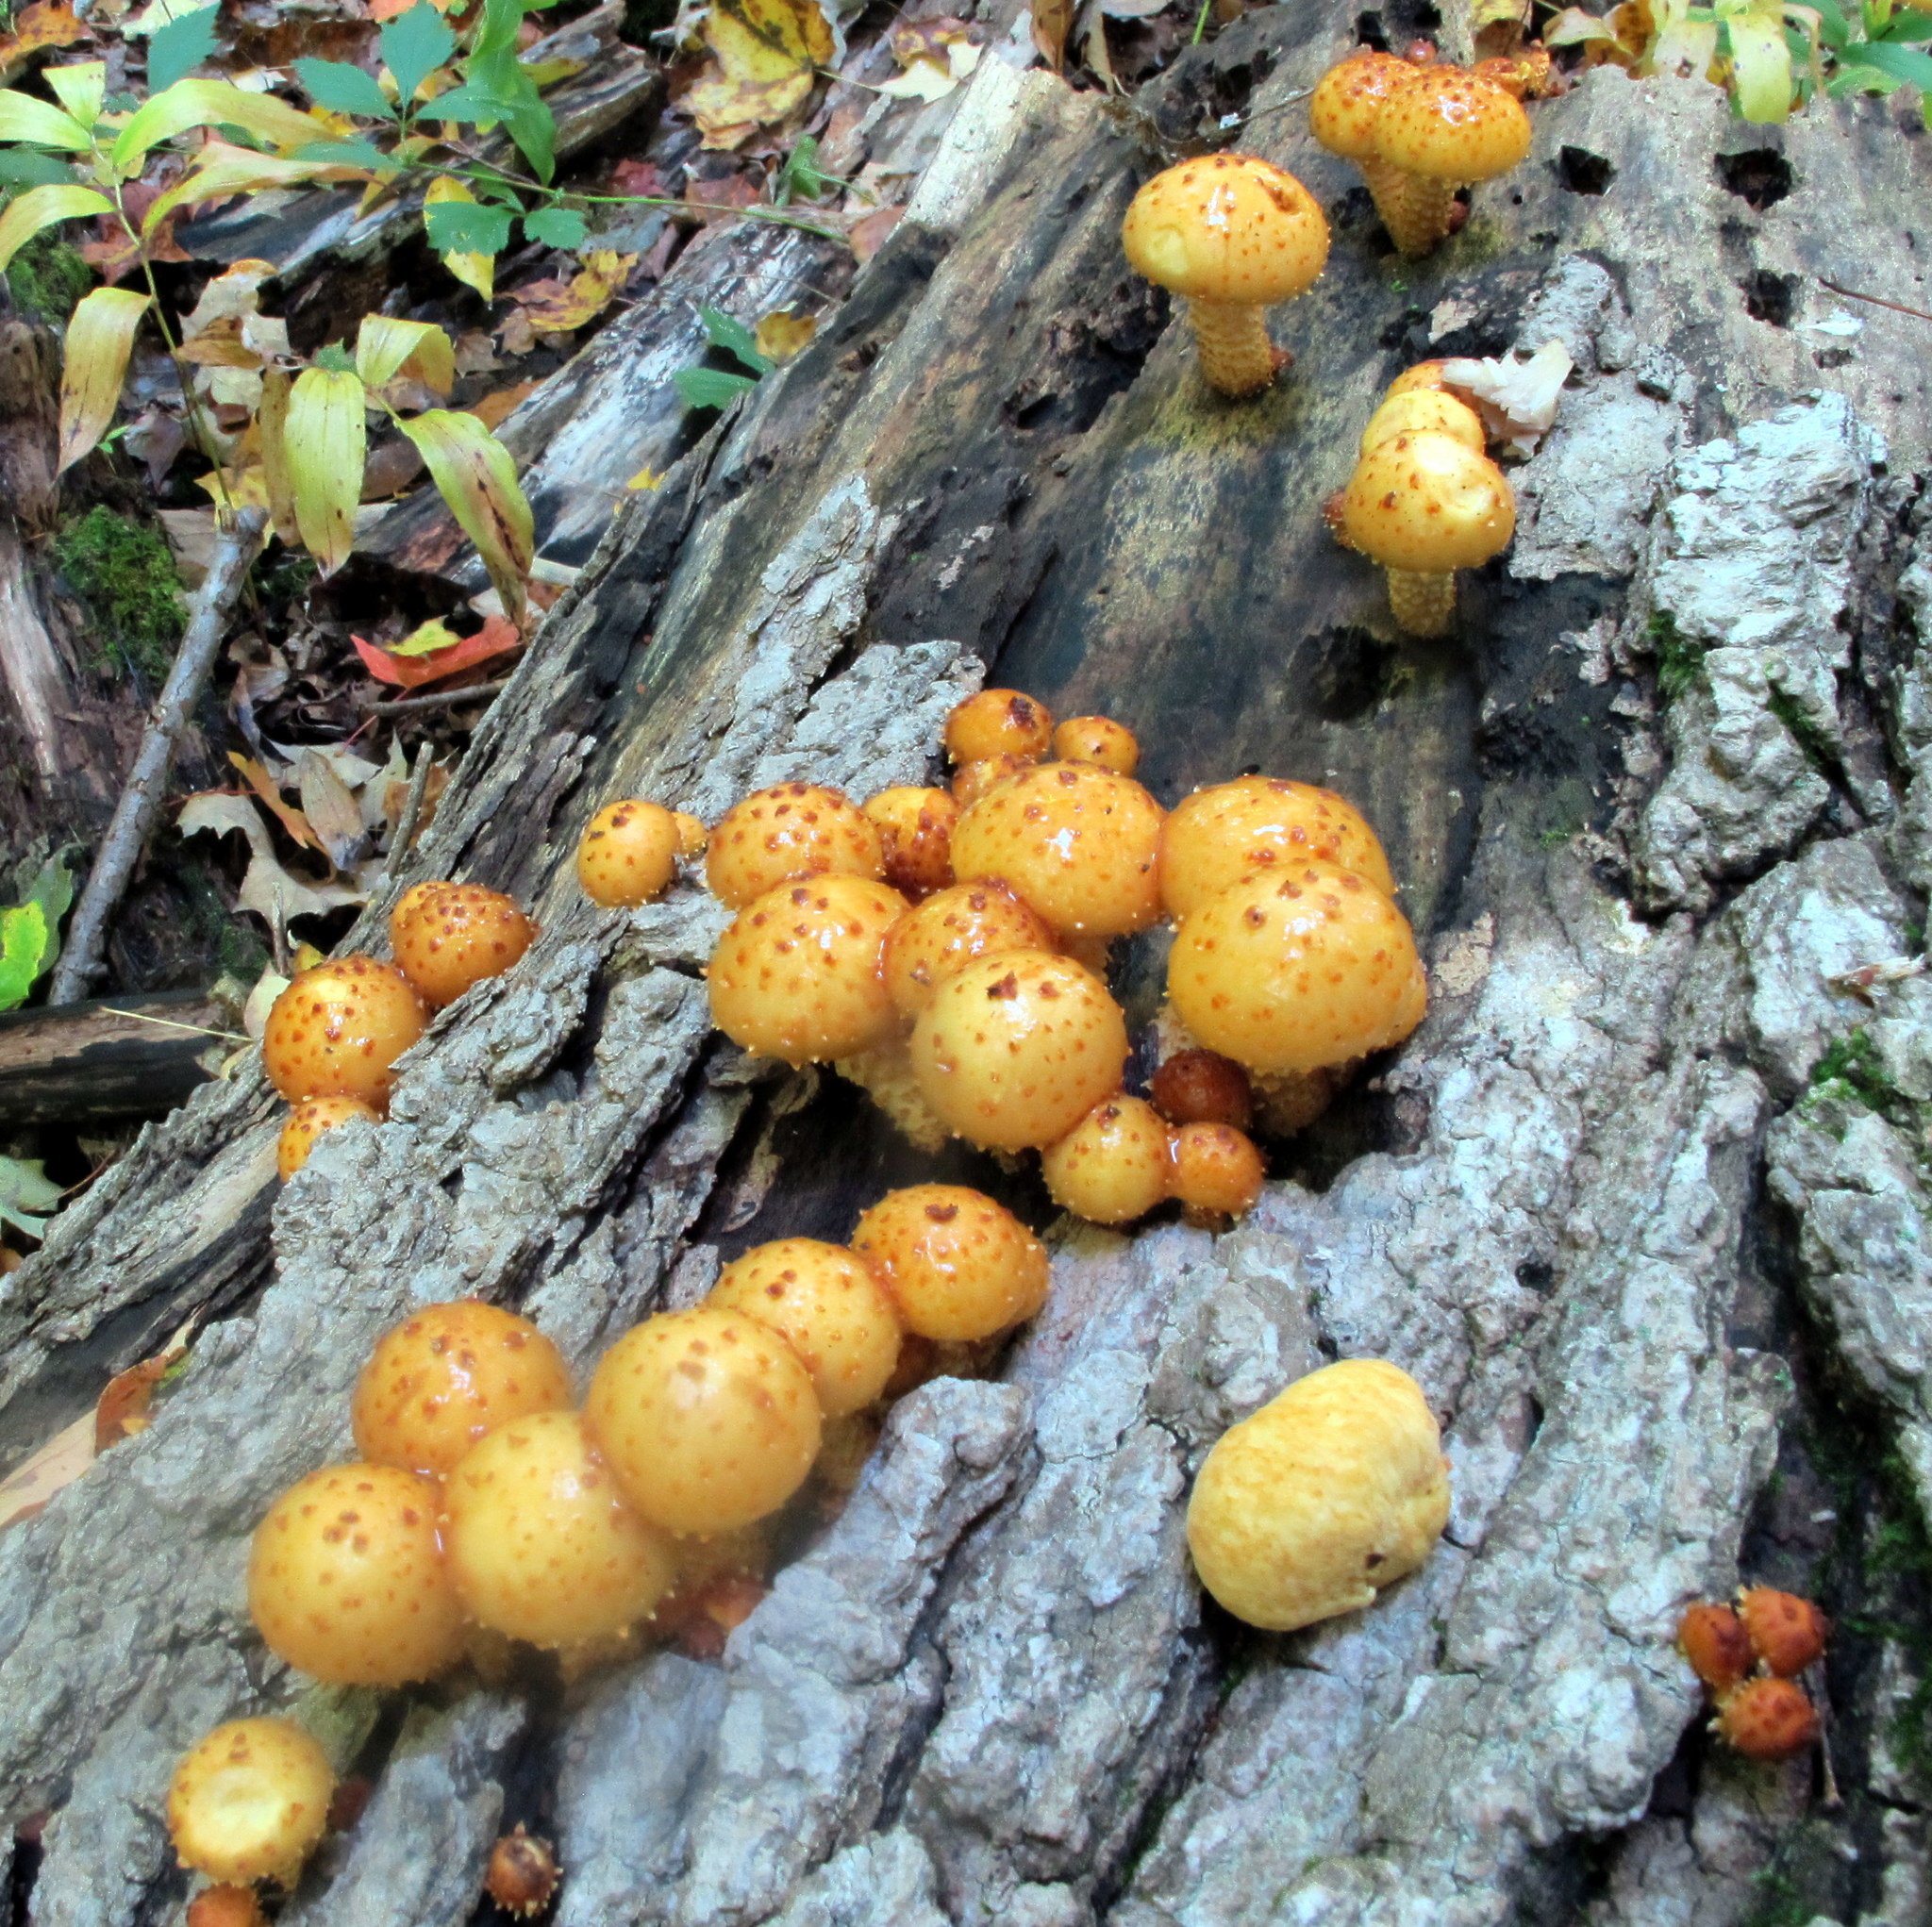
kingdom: Fungi
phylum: Basidiomycota
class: Agaricomycetes
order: Agaricales
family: Strophariaceae
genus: Pholiota
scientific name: Pholiota aurivella
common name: Golden scalycap
